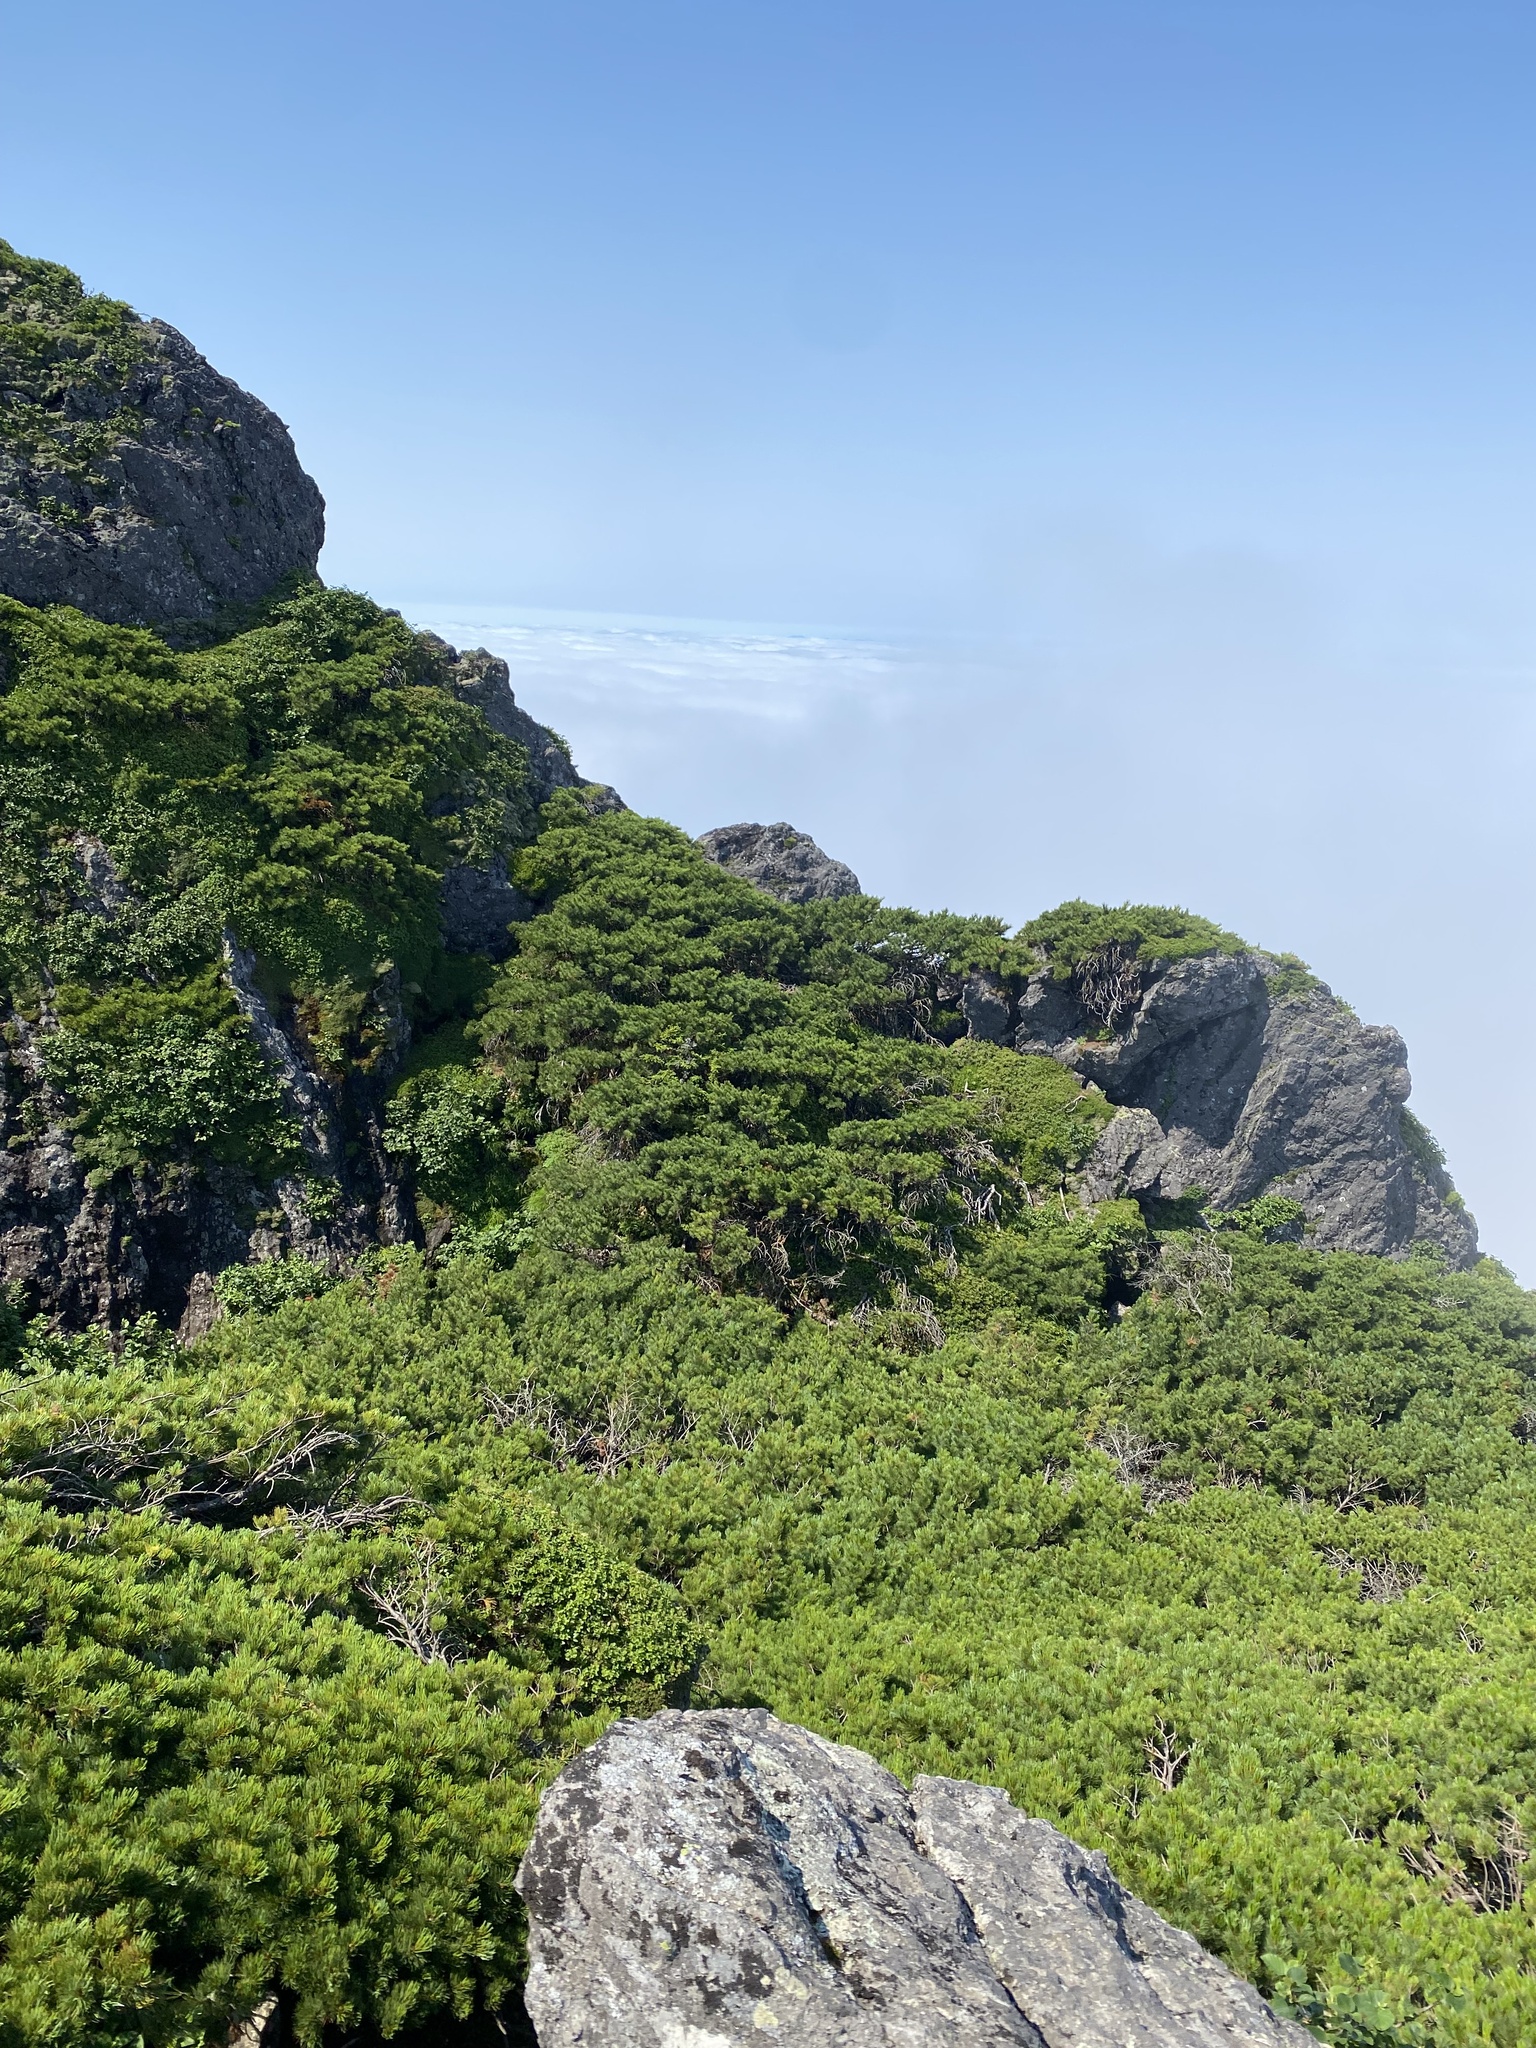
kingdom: Plantae
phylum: Tracheophyta
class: Pinopsida
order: Pinales
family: Pinaceae
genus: Pinus
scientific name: Pinus pumila
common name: Dwarf siberian pine
